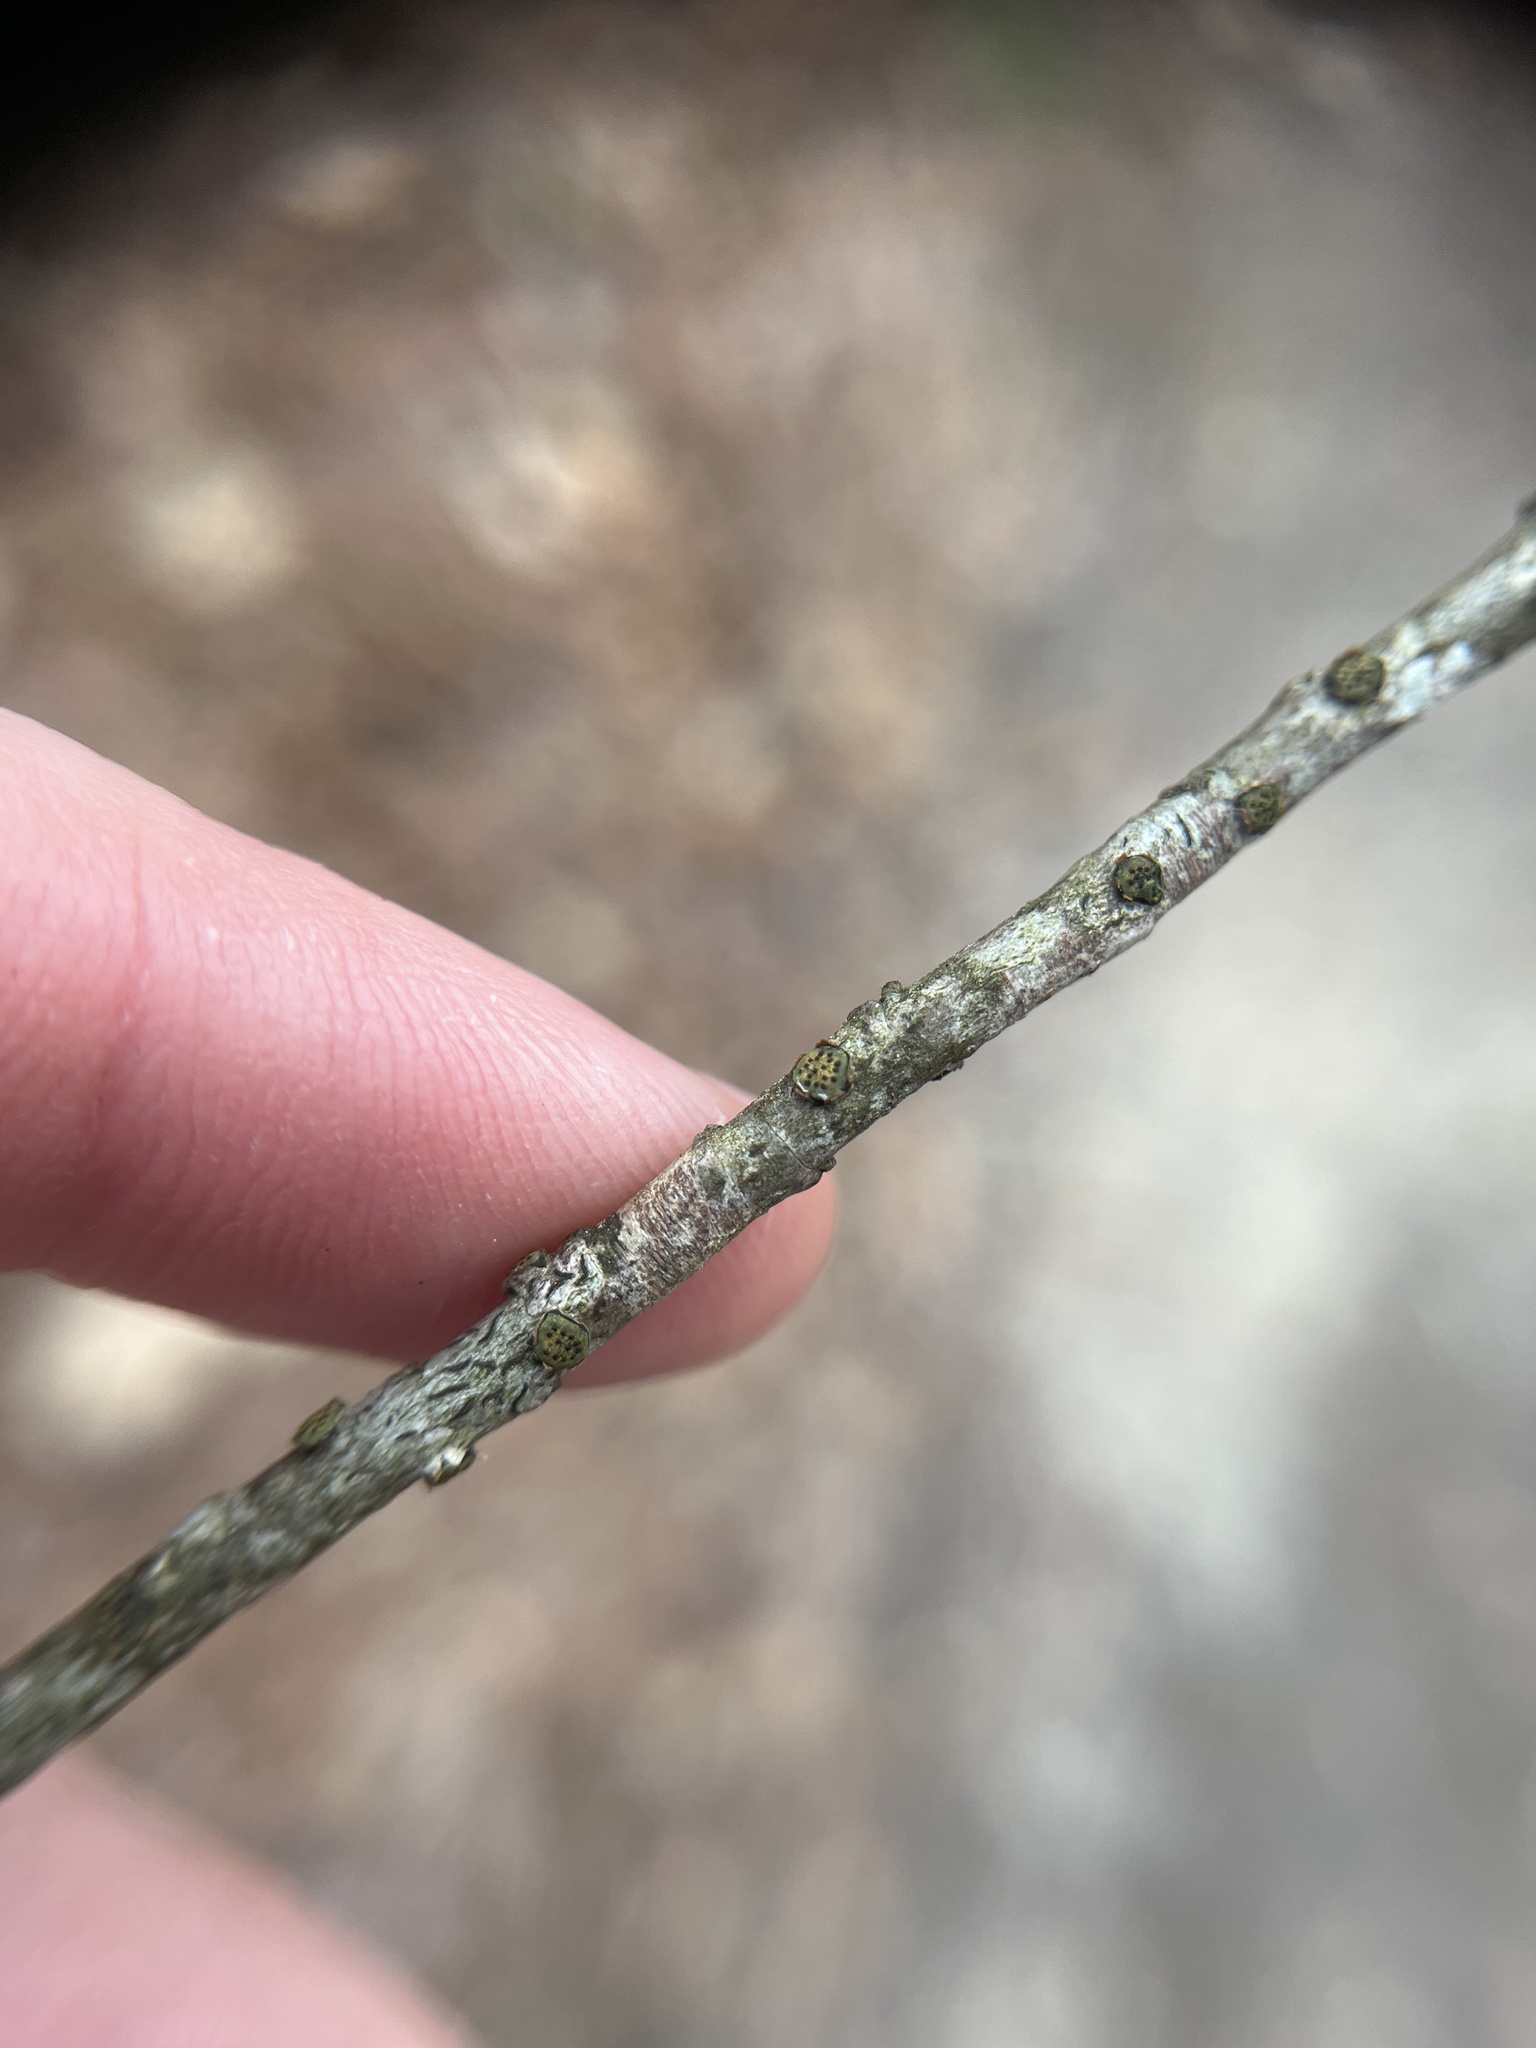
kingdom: Fungi
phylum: Ascomycota
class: Sordariomycetes
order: Xylariales
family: Diatrypaceae
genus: Diatrype
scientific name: Diatrype virescens
